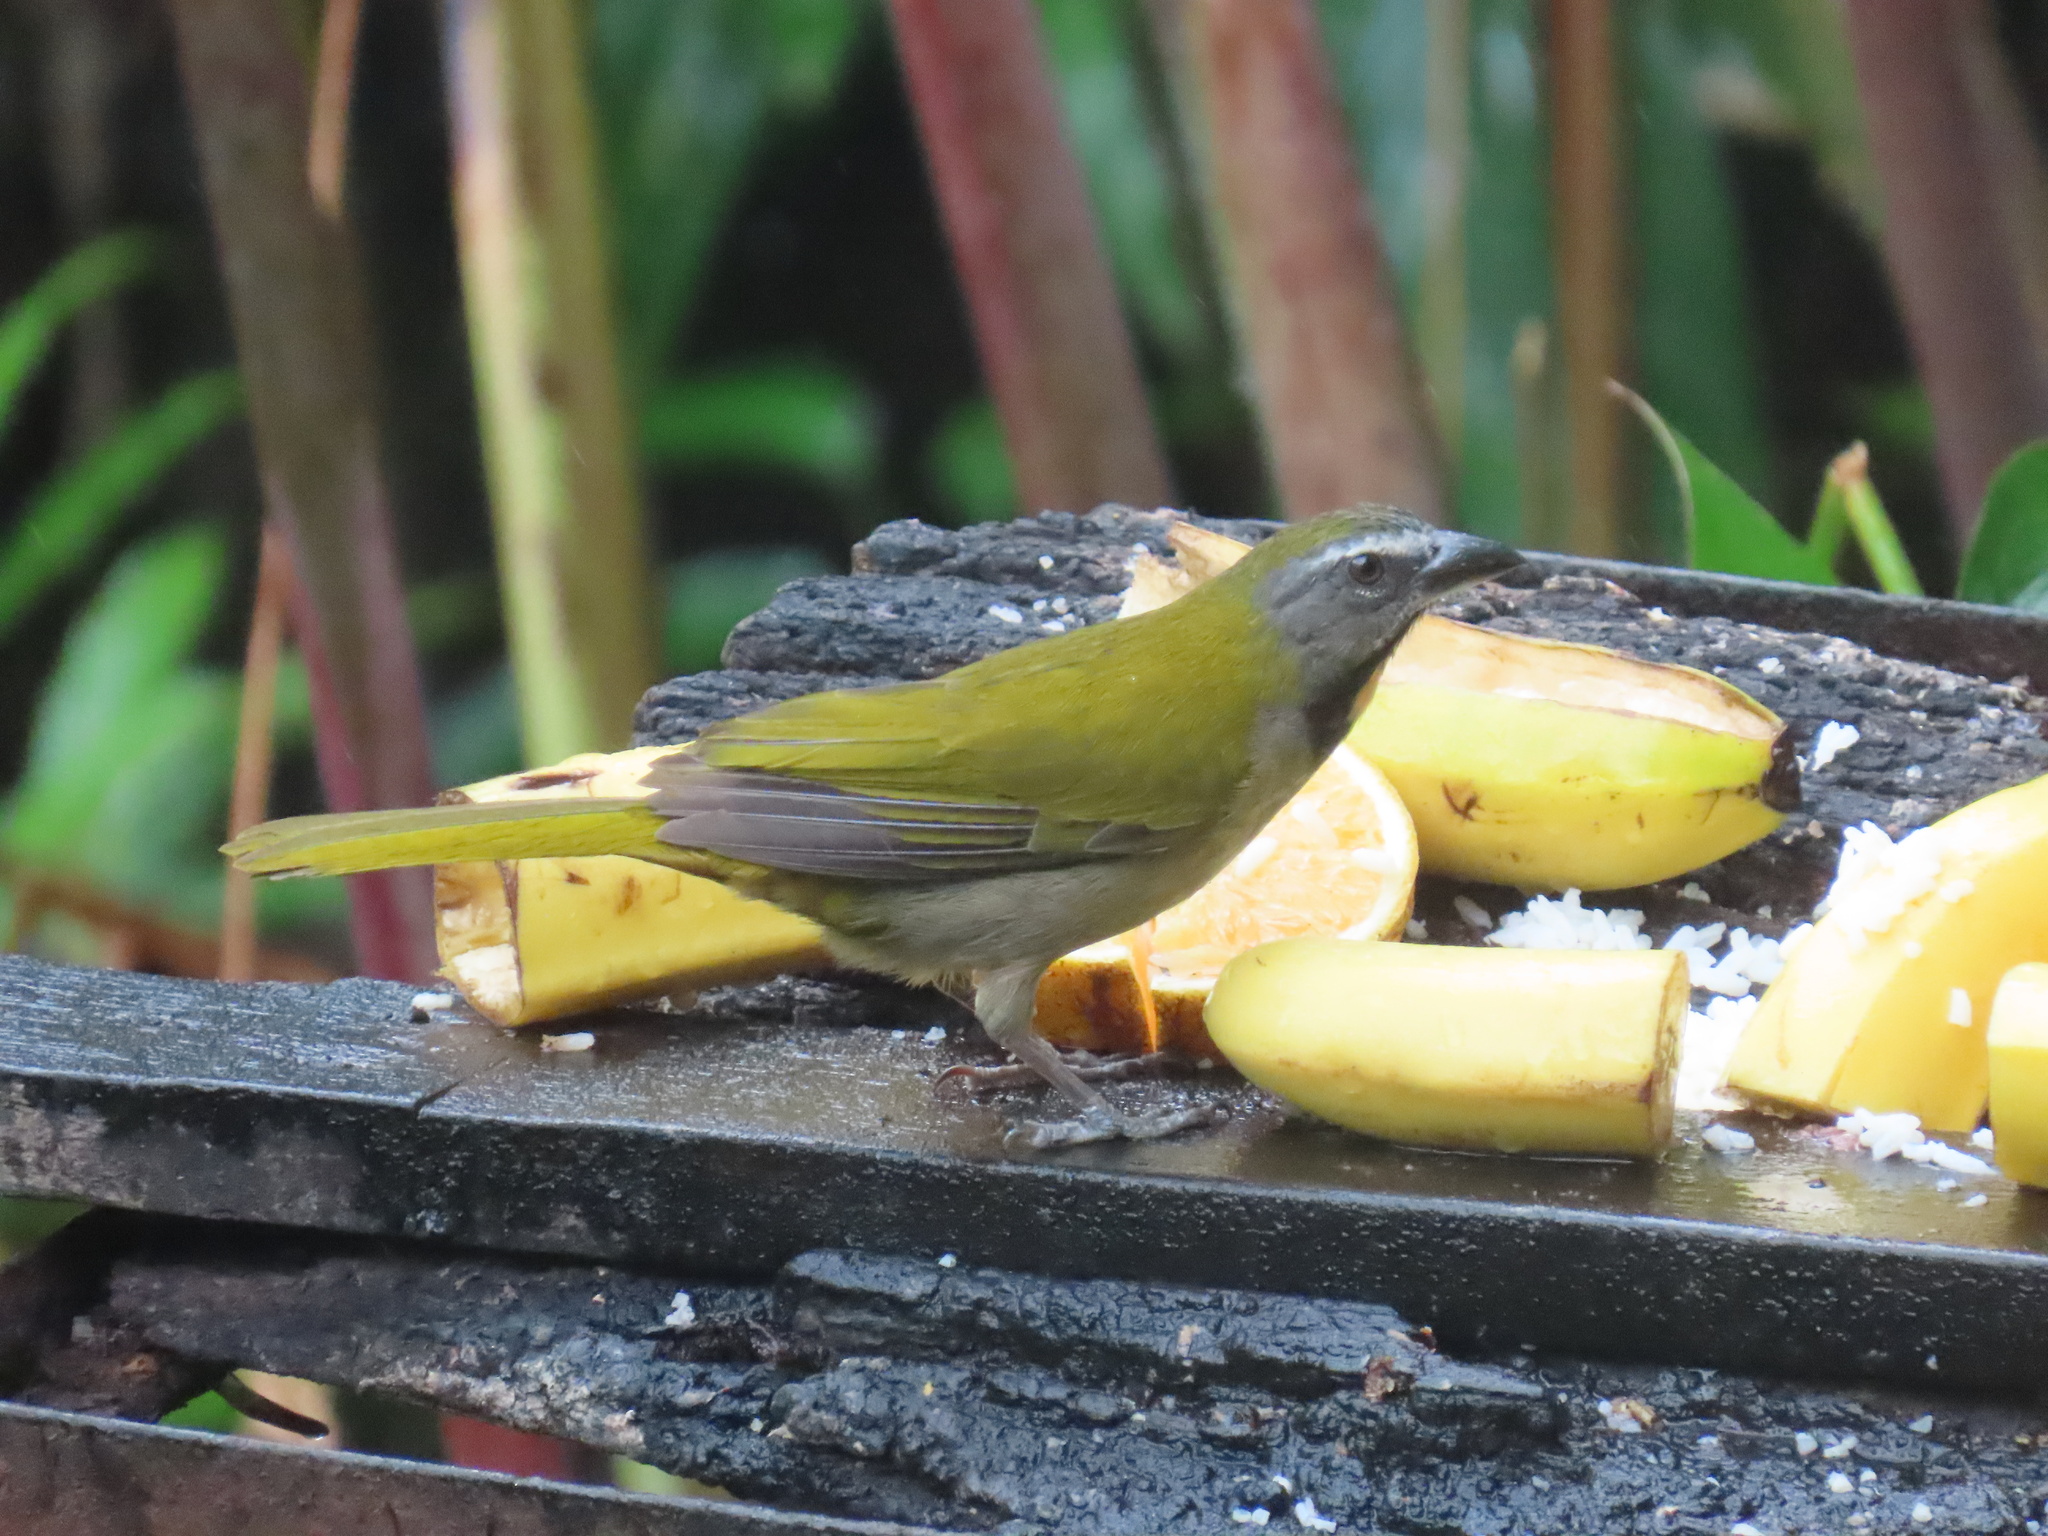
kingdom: Animalia
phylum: Chordata
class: Aves
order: Passeriformes
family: Thraupidae
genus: Saltator
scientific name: Saltator maximus
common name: Buff-throated saltator
